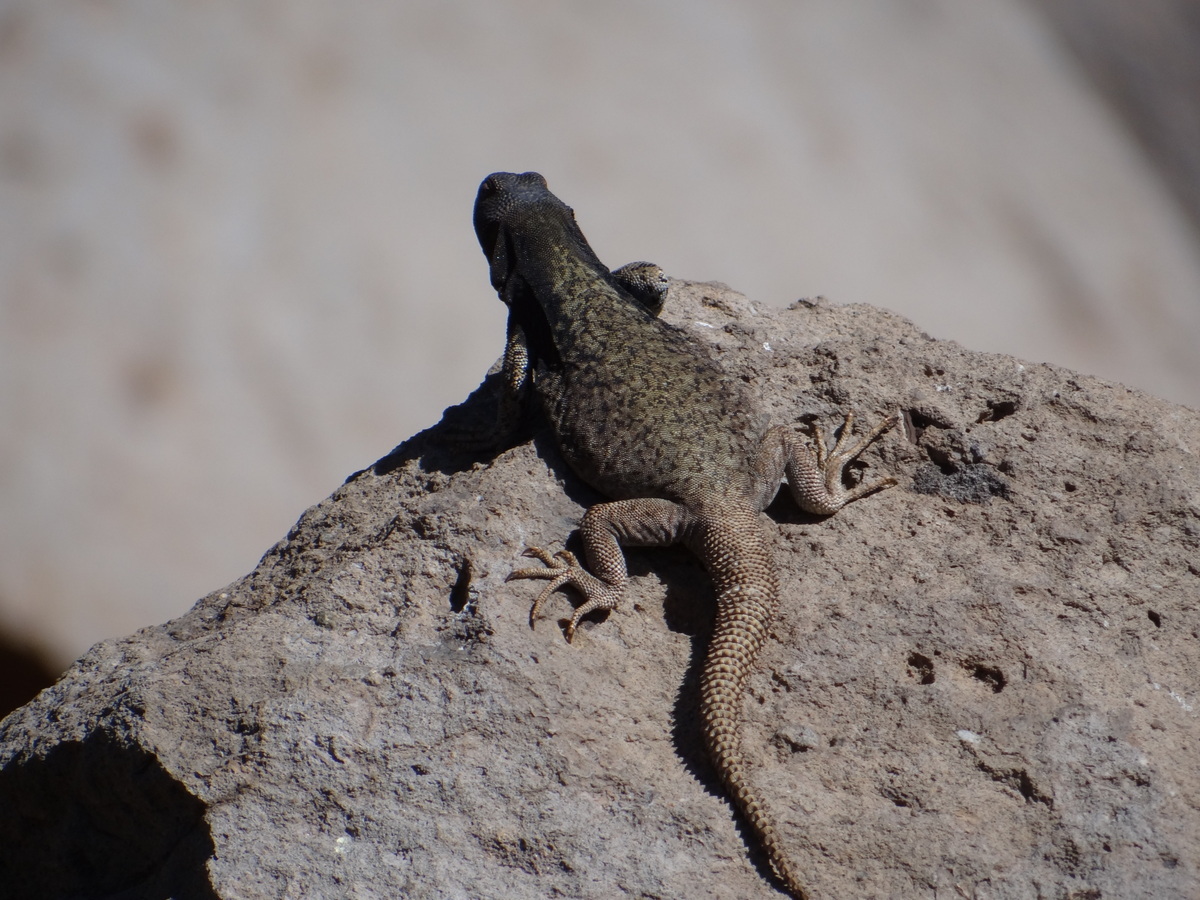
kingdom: Animalia
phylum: Chordata
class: Squamata
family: Liolaemidae
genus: Phymaturus
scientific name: Phymaturus verdugo
